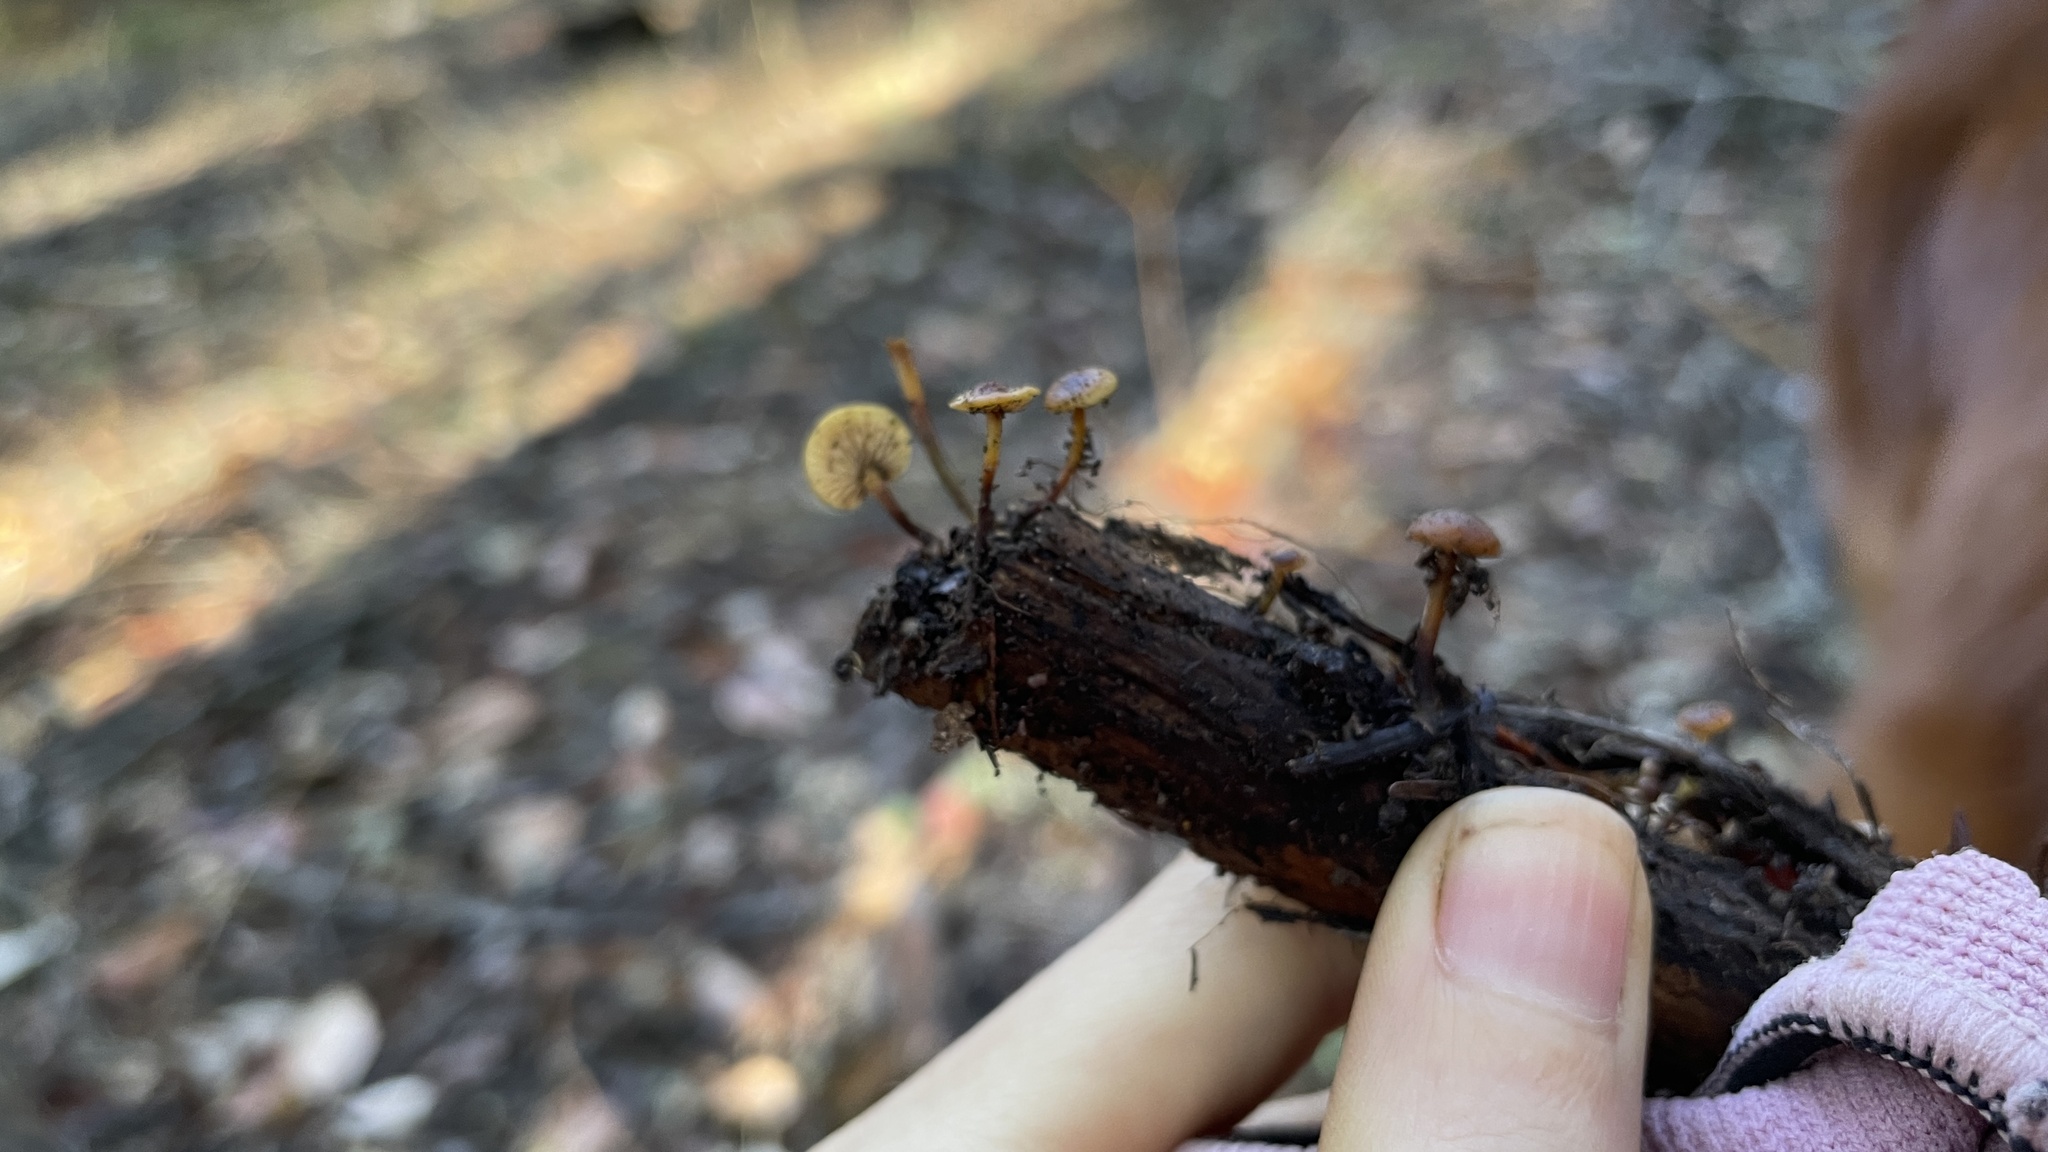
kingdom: Fungi
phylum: Basidiomycota
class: Agaricomycetes
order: Russulales
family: Auriscalpiaceae
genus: Auriscalpium
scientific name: Auriscalpium vulgare
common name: Earpick fungus
